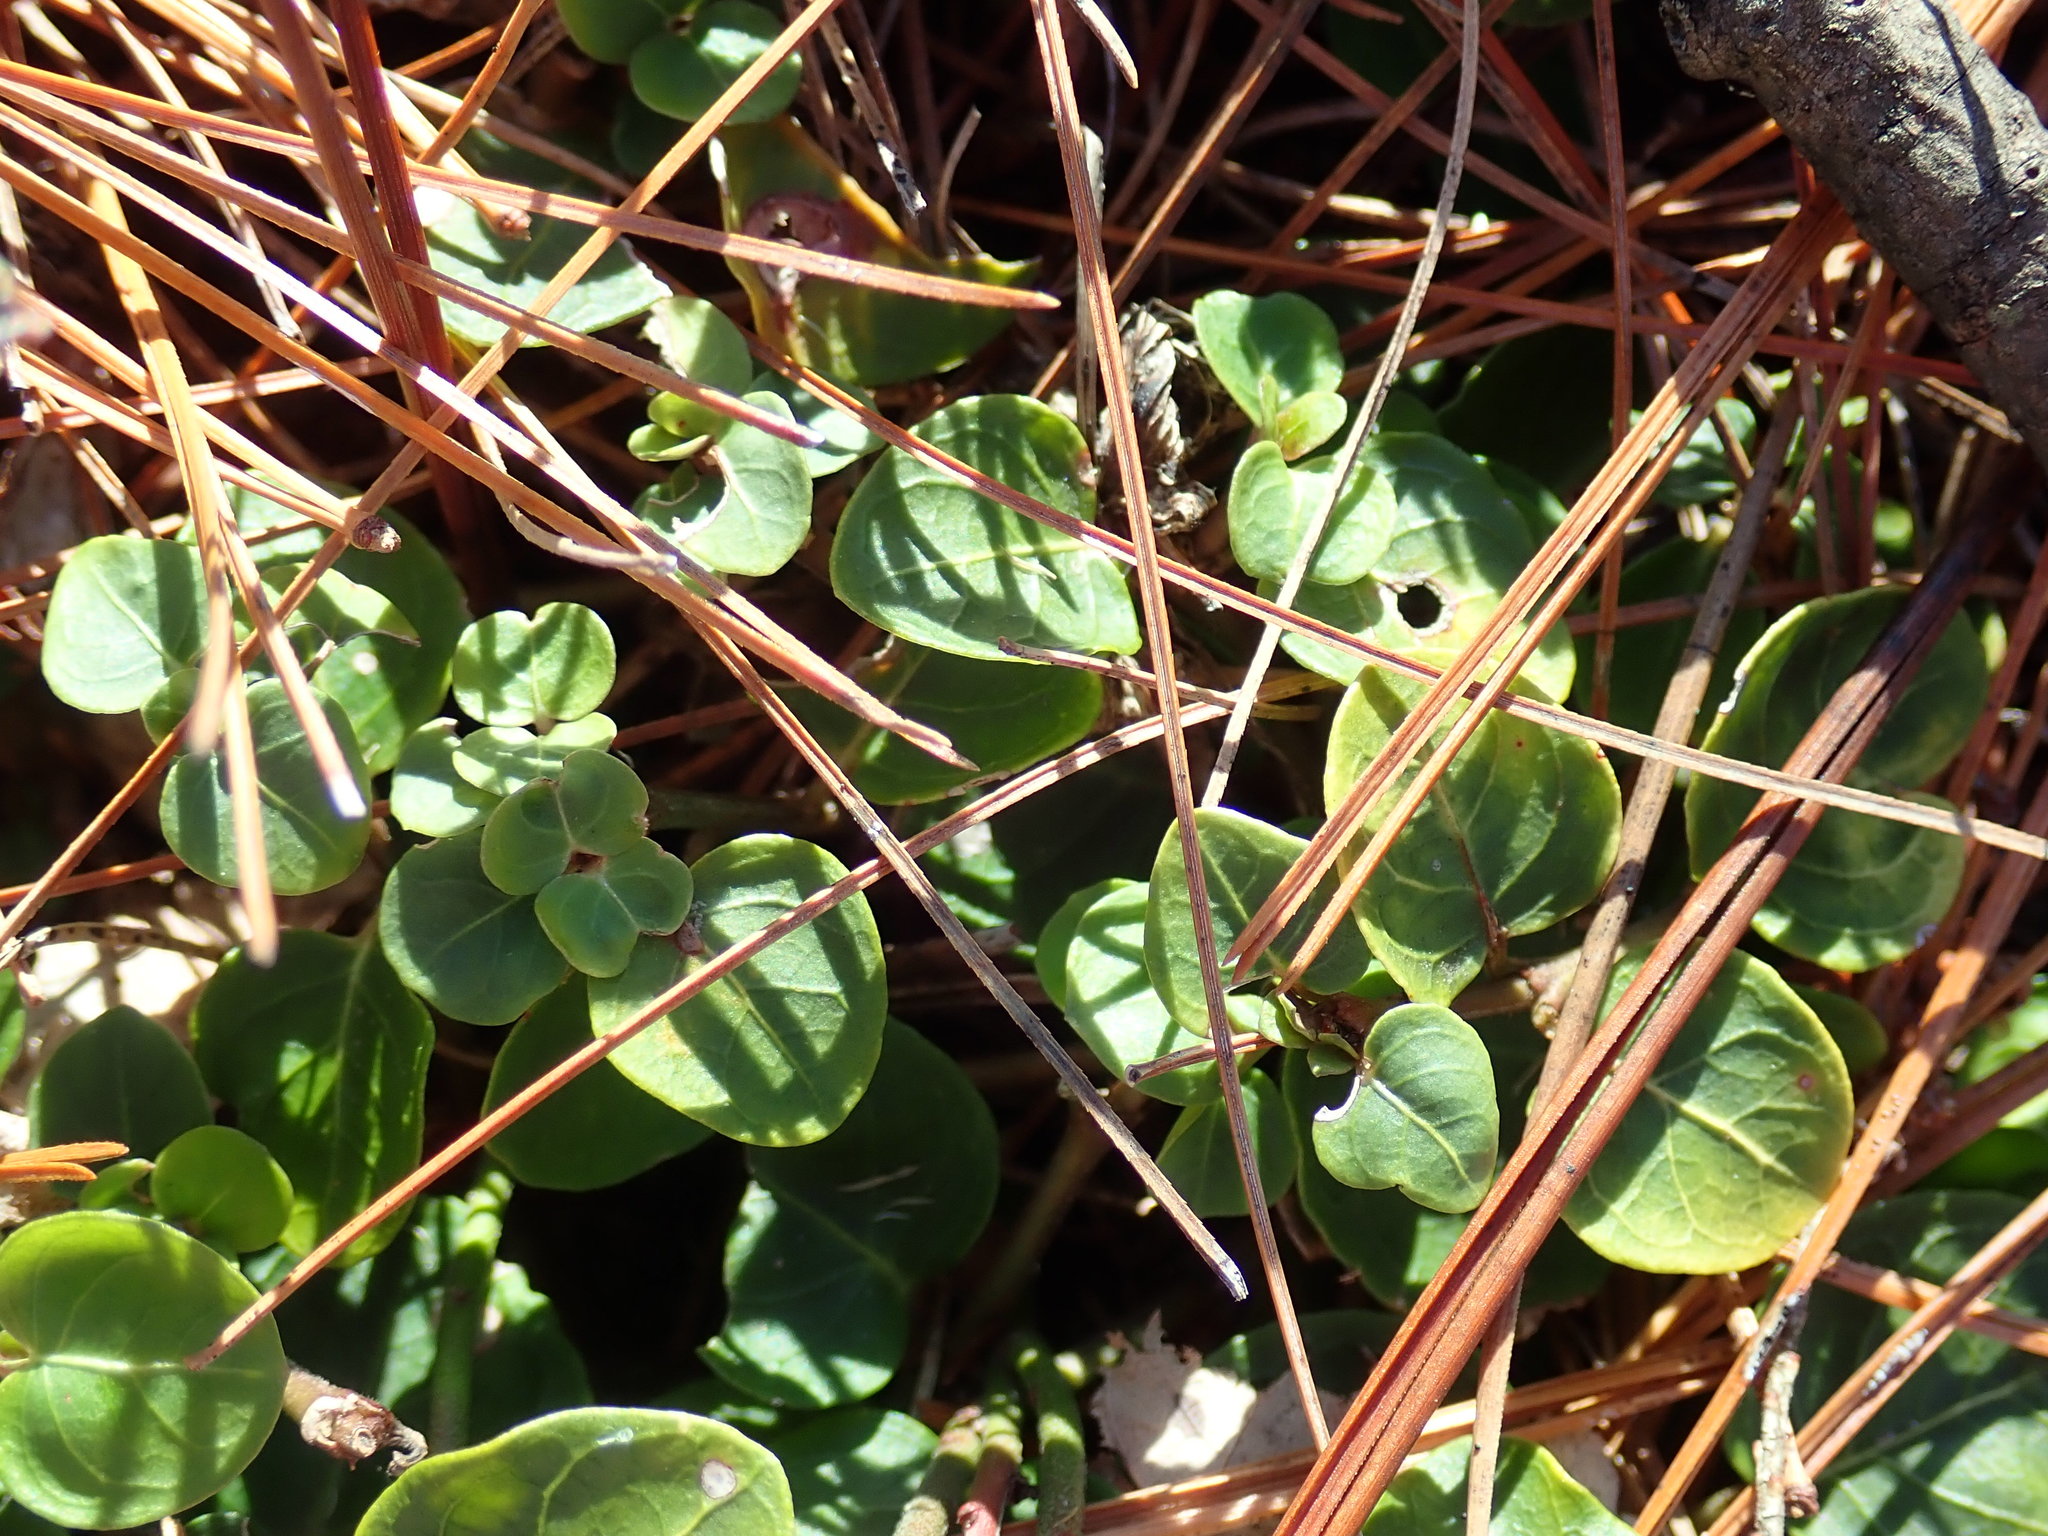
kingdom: Plantae
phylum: Tracheophyta
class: Magnoliopsida
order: Gentianales
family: Rubiaceae
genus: Mitchella
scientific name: Mitchella repens
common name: Partridge-berry
